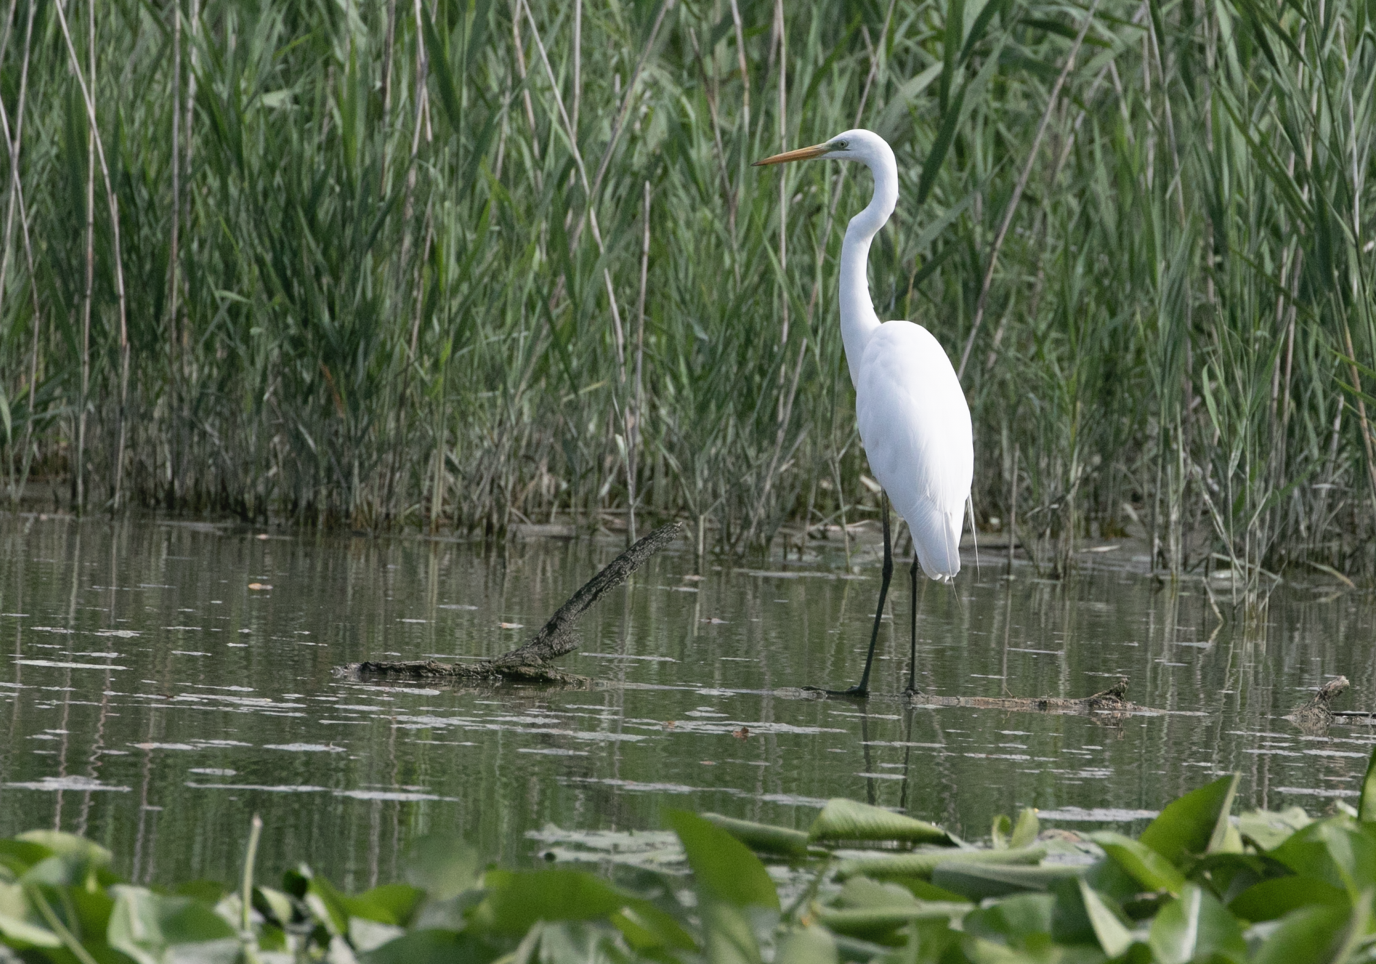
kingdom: Animalia
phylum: Chordata
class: Aves
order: Pelecaniformes
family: Ardeidae
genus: Ardea
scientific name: Ardea alba
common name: Great egret
